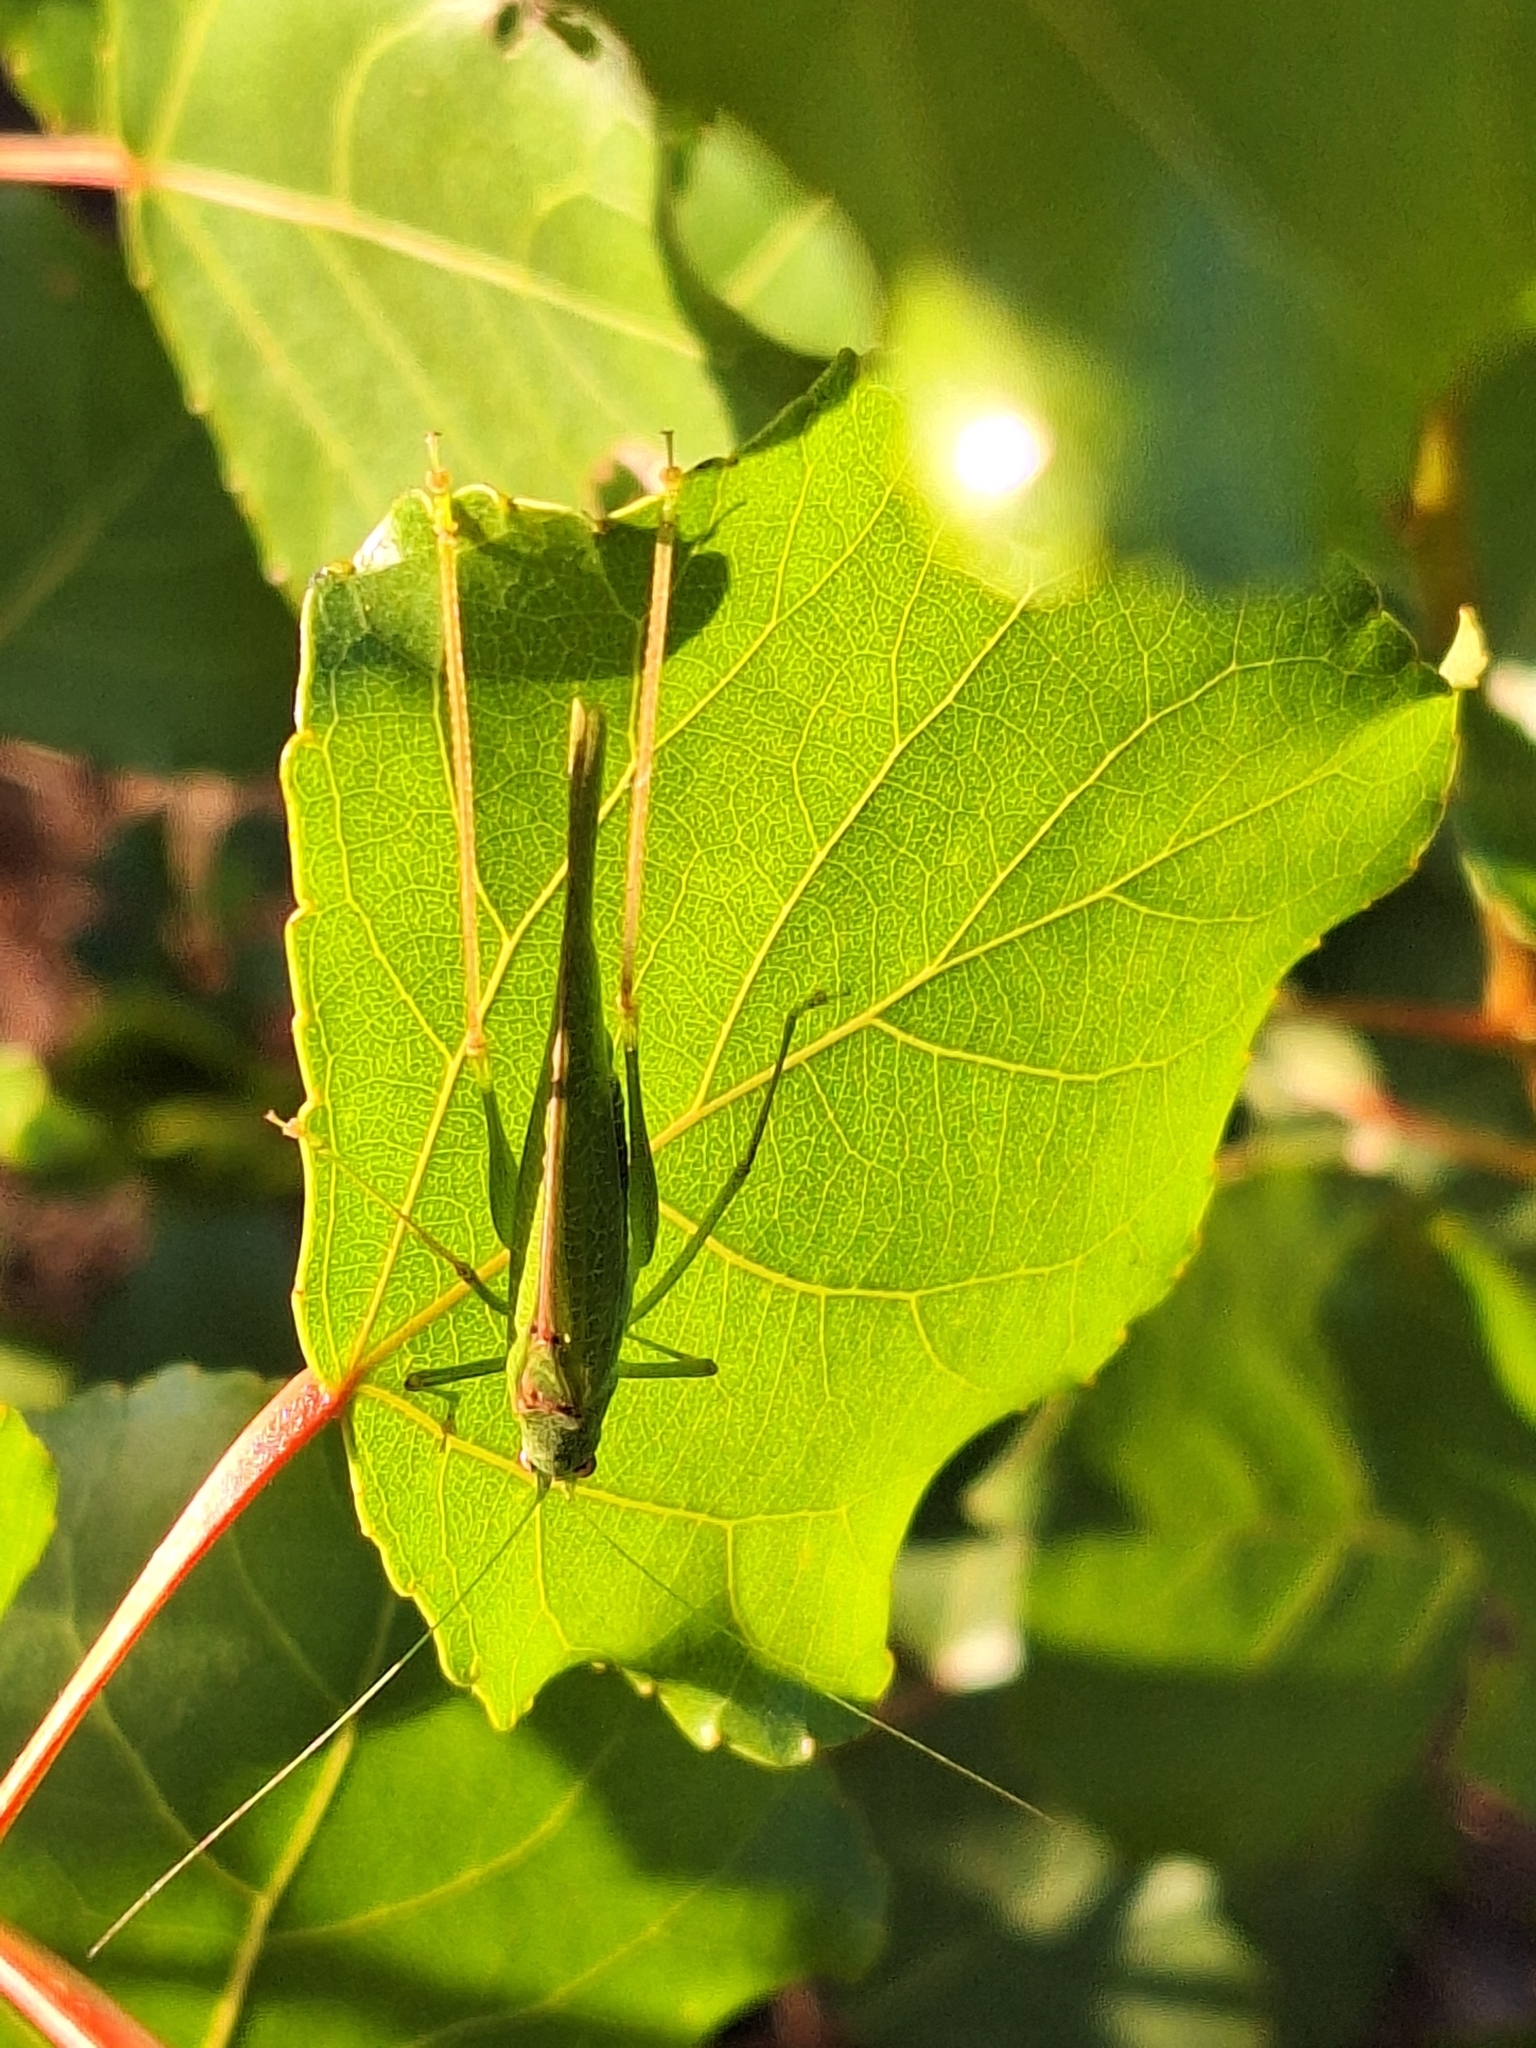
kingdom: Animalia
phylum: Arthropoda
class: Insecta
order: Orthoptera
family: Tettigoniidae
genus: Phaneroptera
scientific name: Phaneroptera nana
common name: Southern sickle bush-cricket
